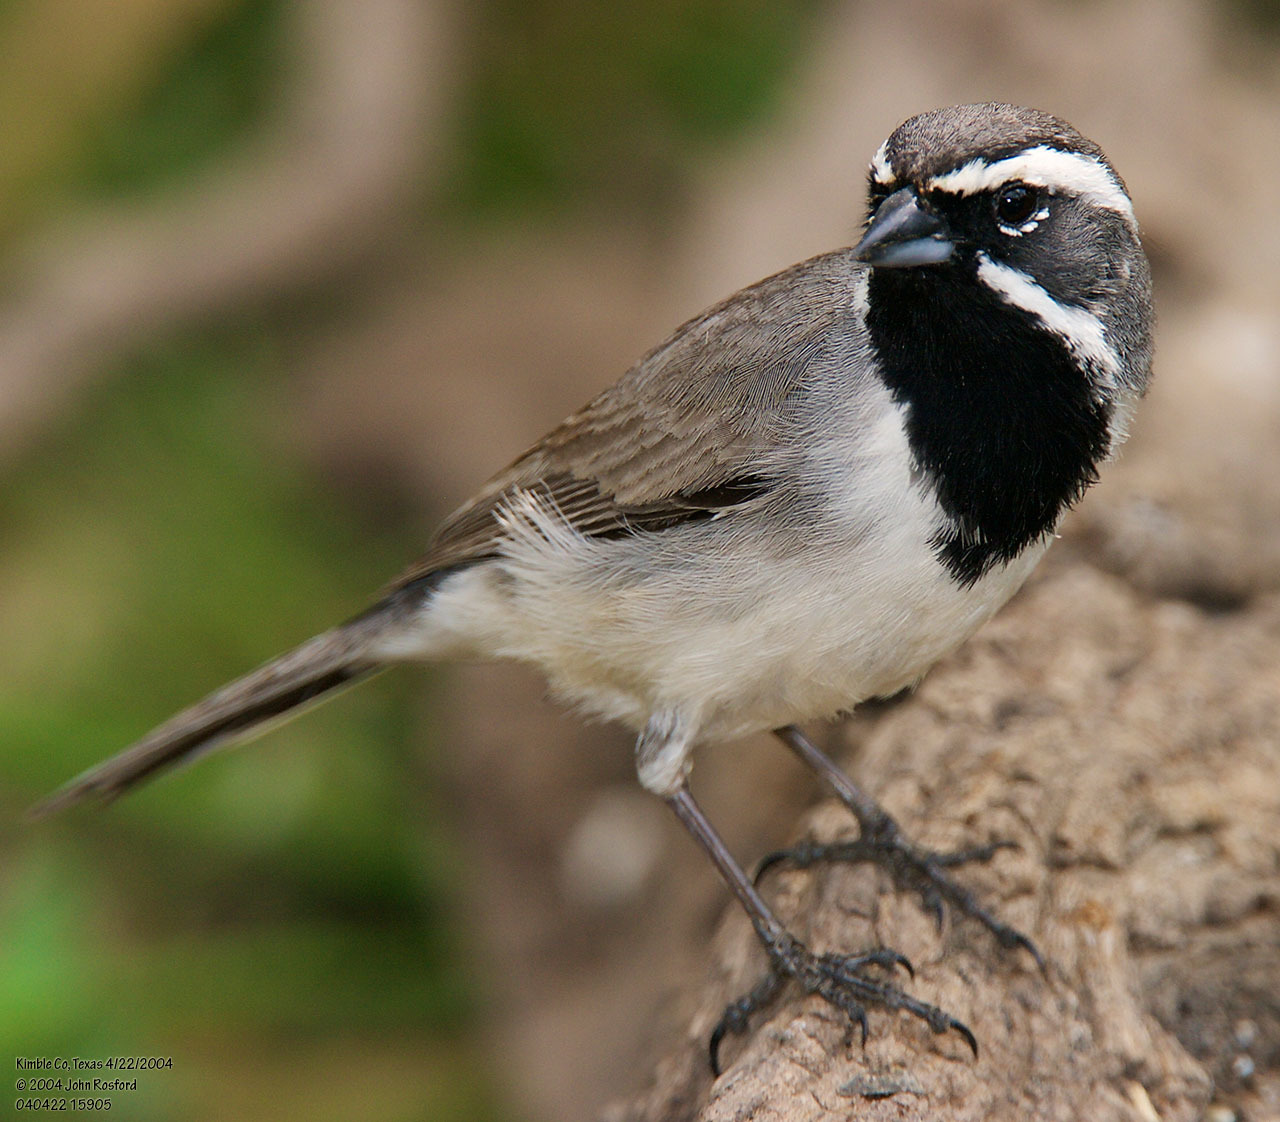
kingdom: Animalia
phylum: Chordata
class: Aves
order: Passeriformes
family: Passerellidae
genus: Amphispiza
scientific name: Amphispiza bilineata
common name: Black-throated sparrow
